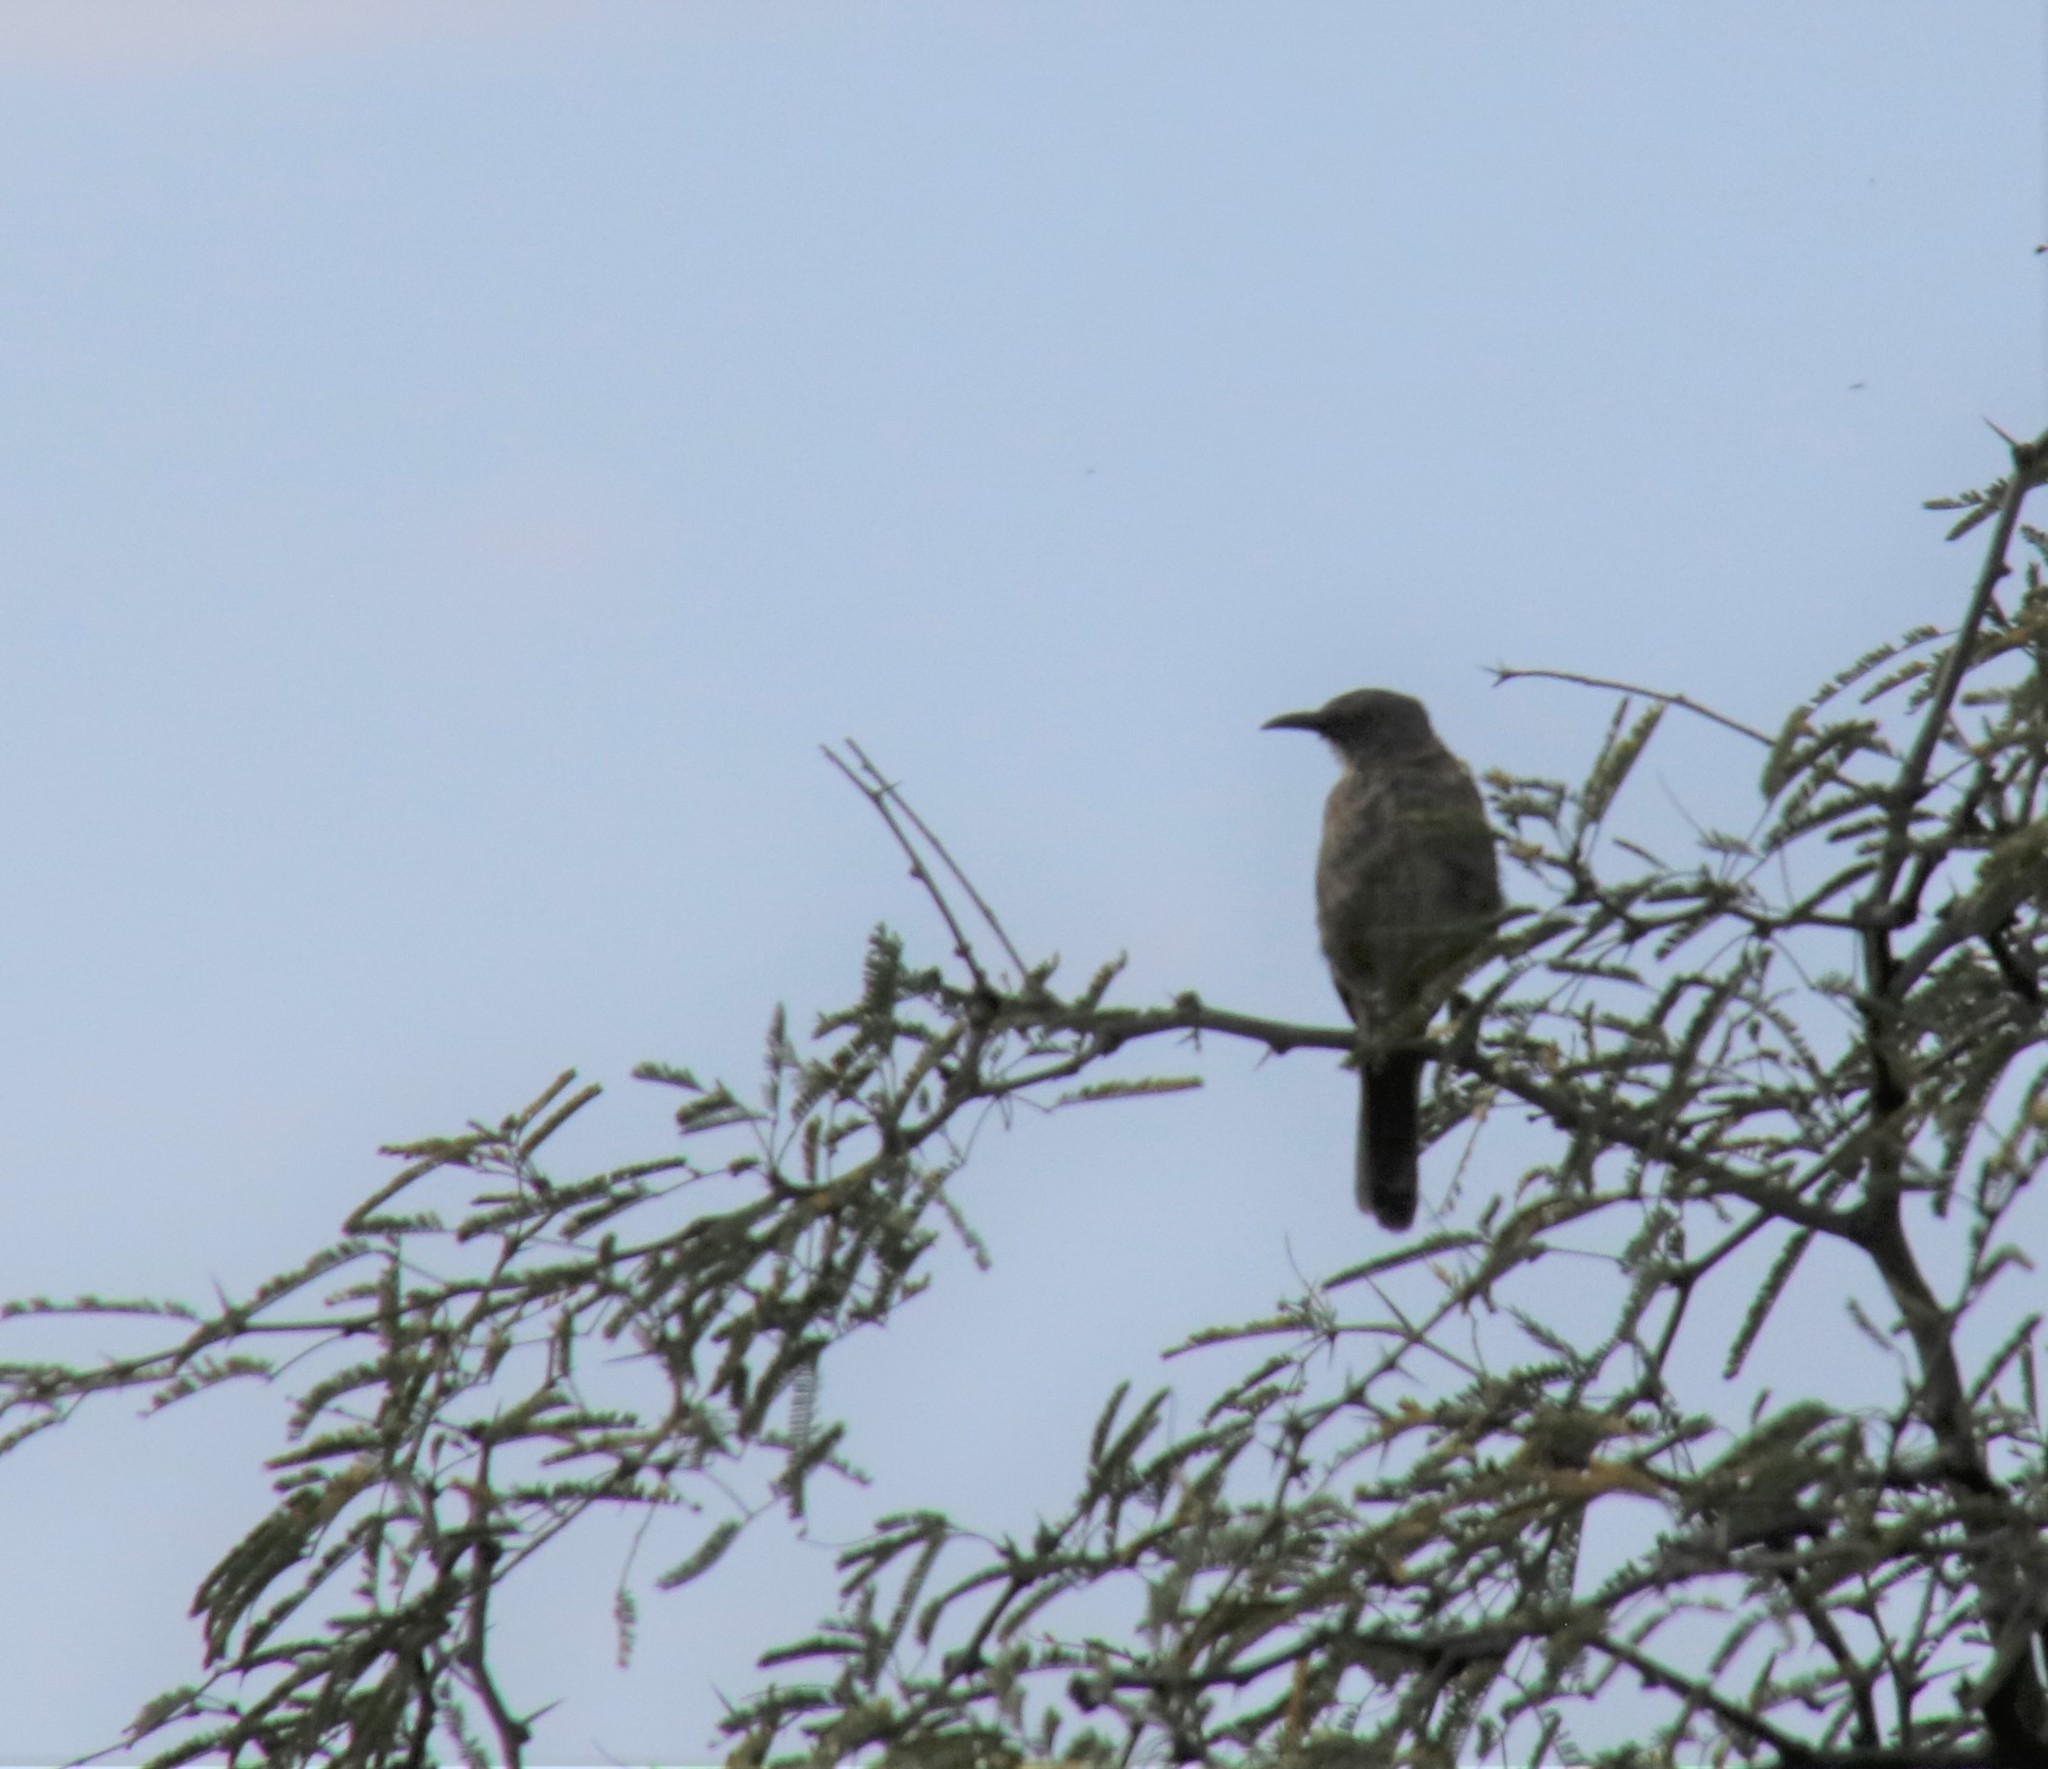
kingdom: Animalia
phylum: Chordata
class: Aves
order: Passeriformes
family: Mimidae
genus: Toxostoma
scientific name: Toxostoma curvirostre
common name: Curve-billed thrasher
